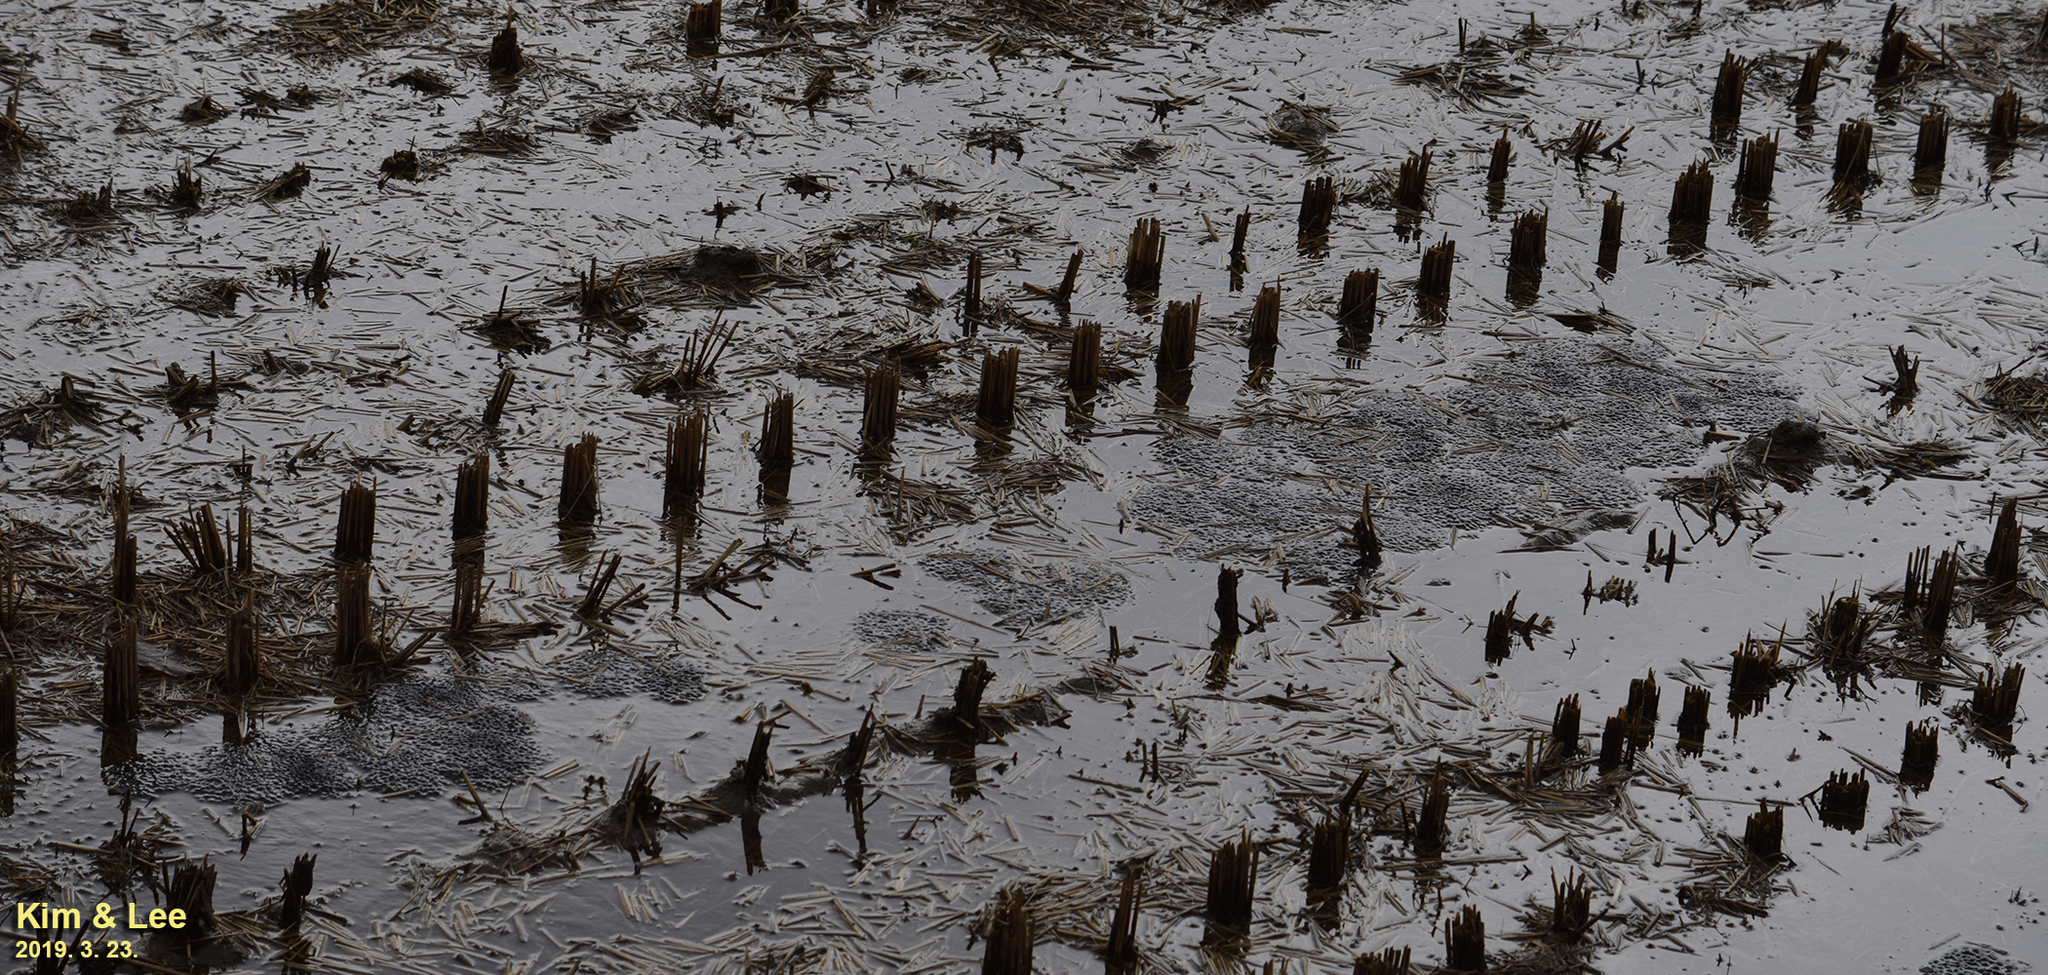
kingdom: Animalia
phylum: Chordata
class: Amphibia
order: Anura
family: Ranidae
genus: Rana
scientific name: Rana uenoi
